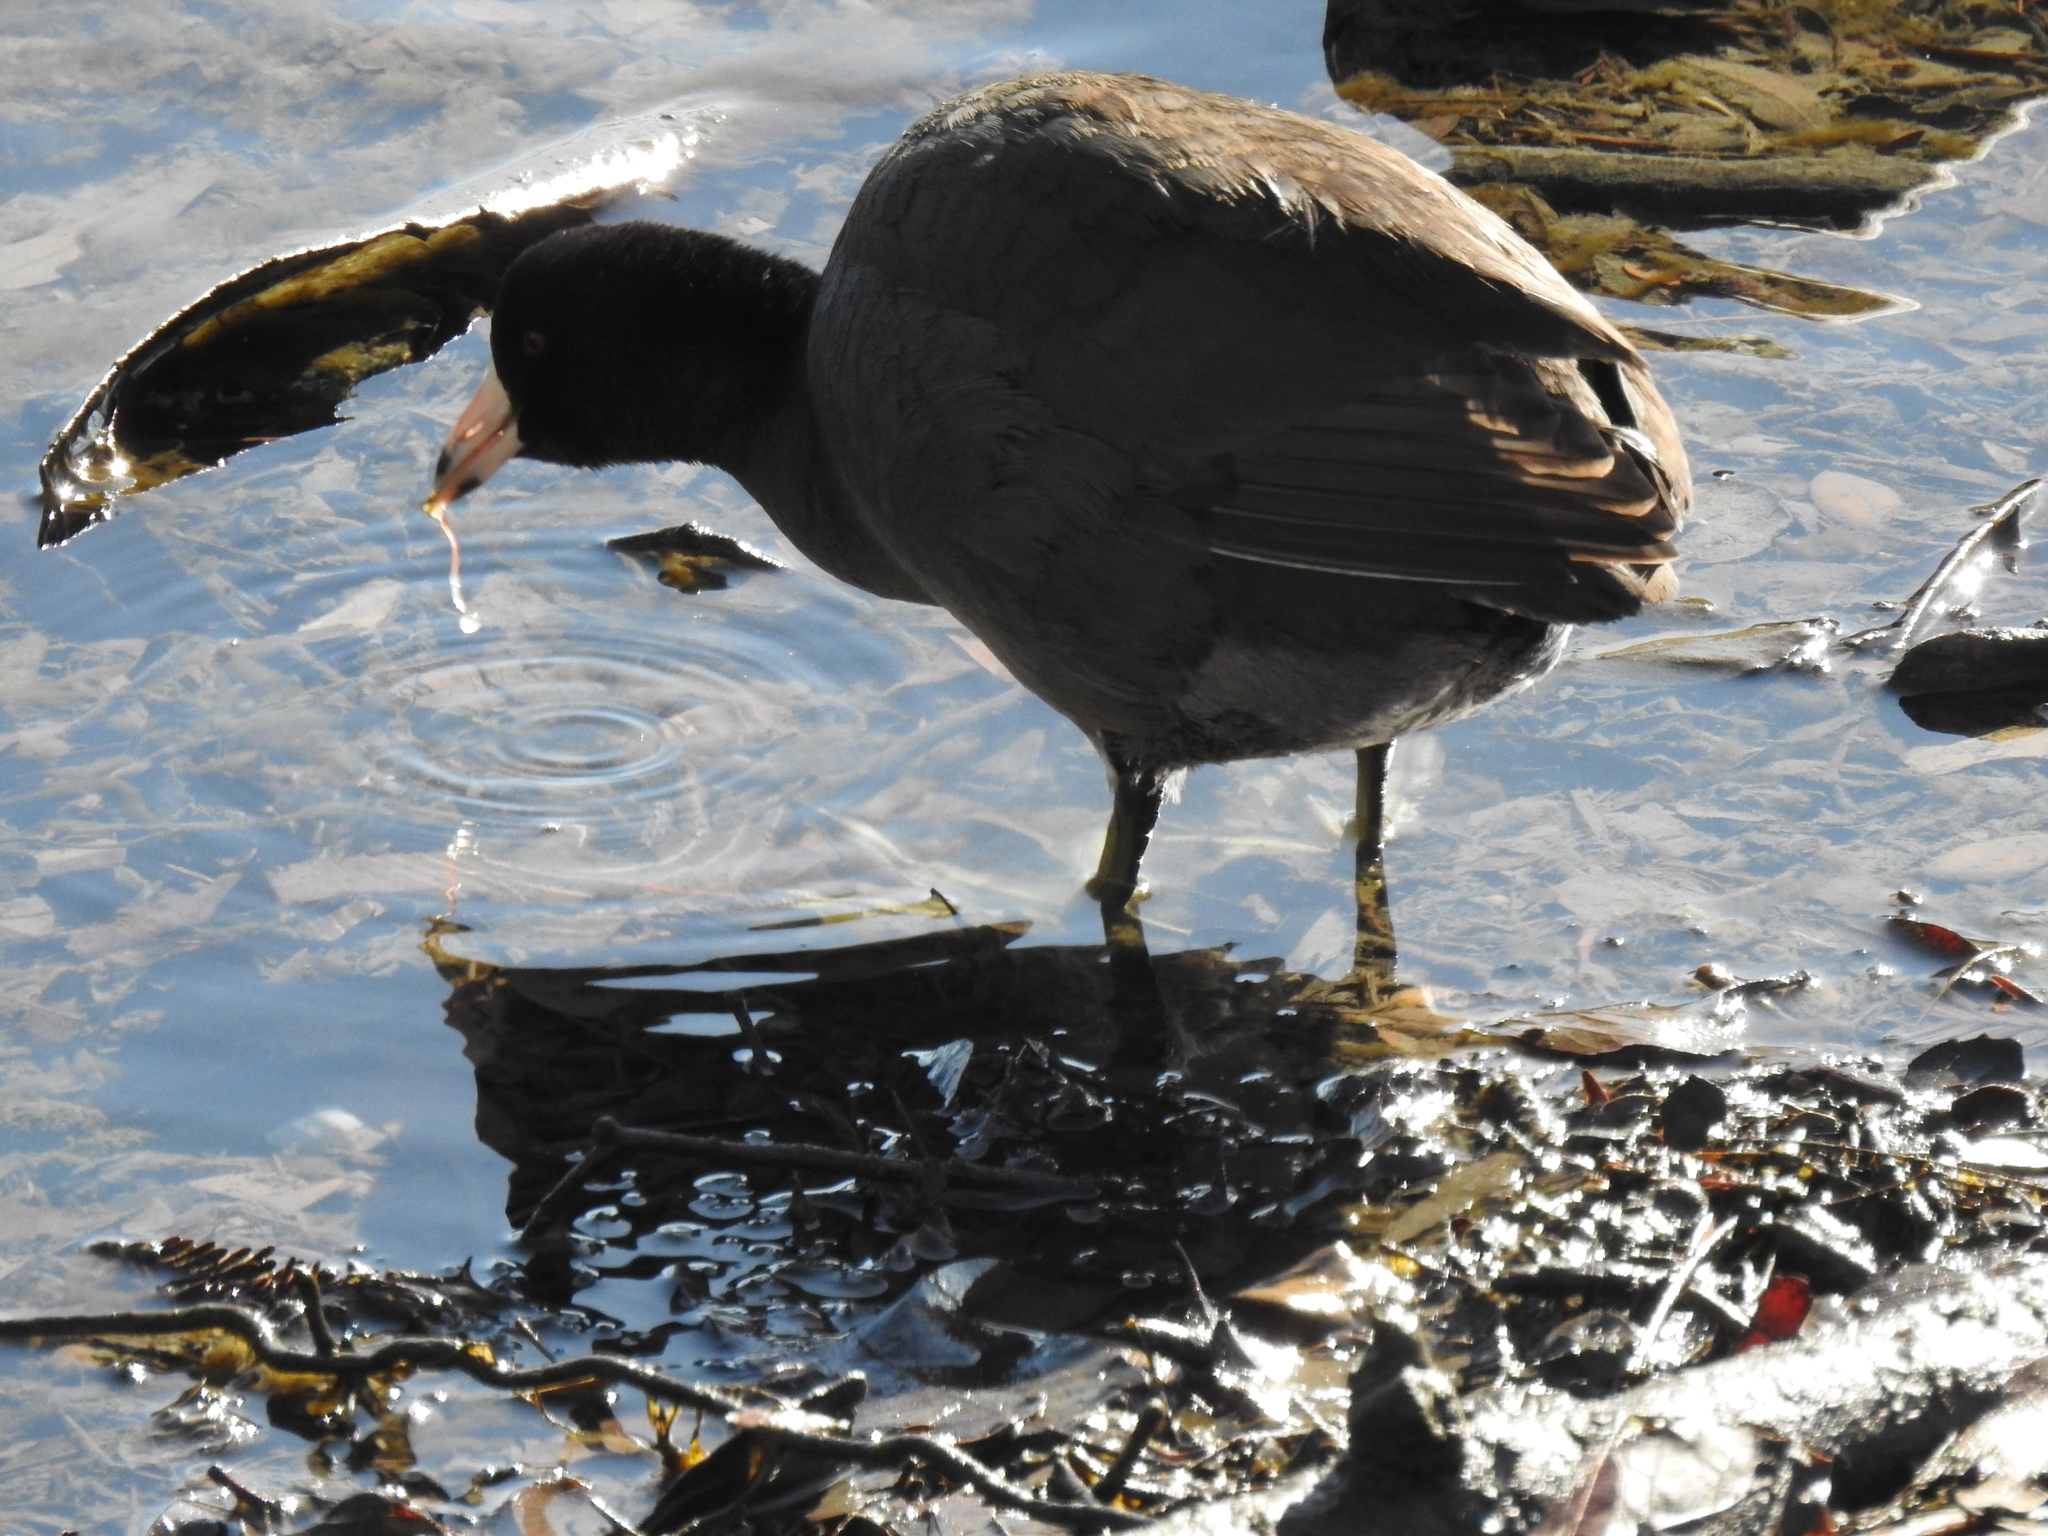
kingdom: Animalia
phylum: Chordata
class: Aves
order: Gruiformes
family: Rallidae
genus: Fulica
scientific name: Fulica americana
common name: American coot
